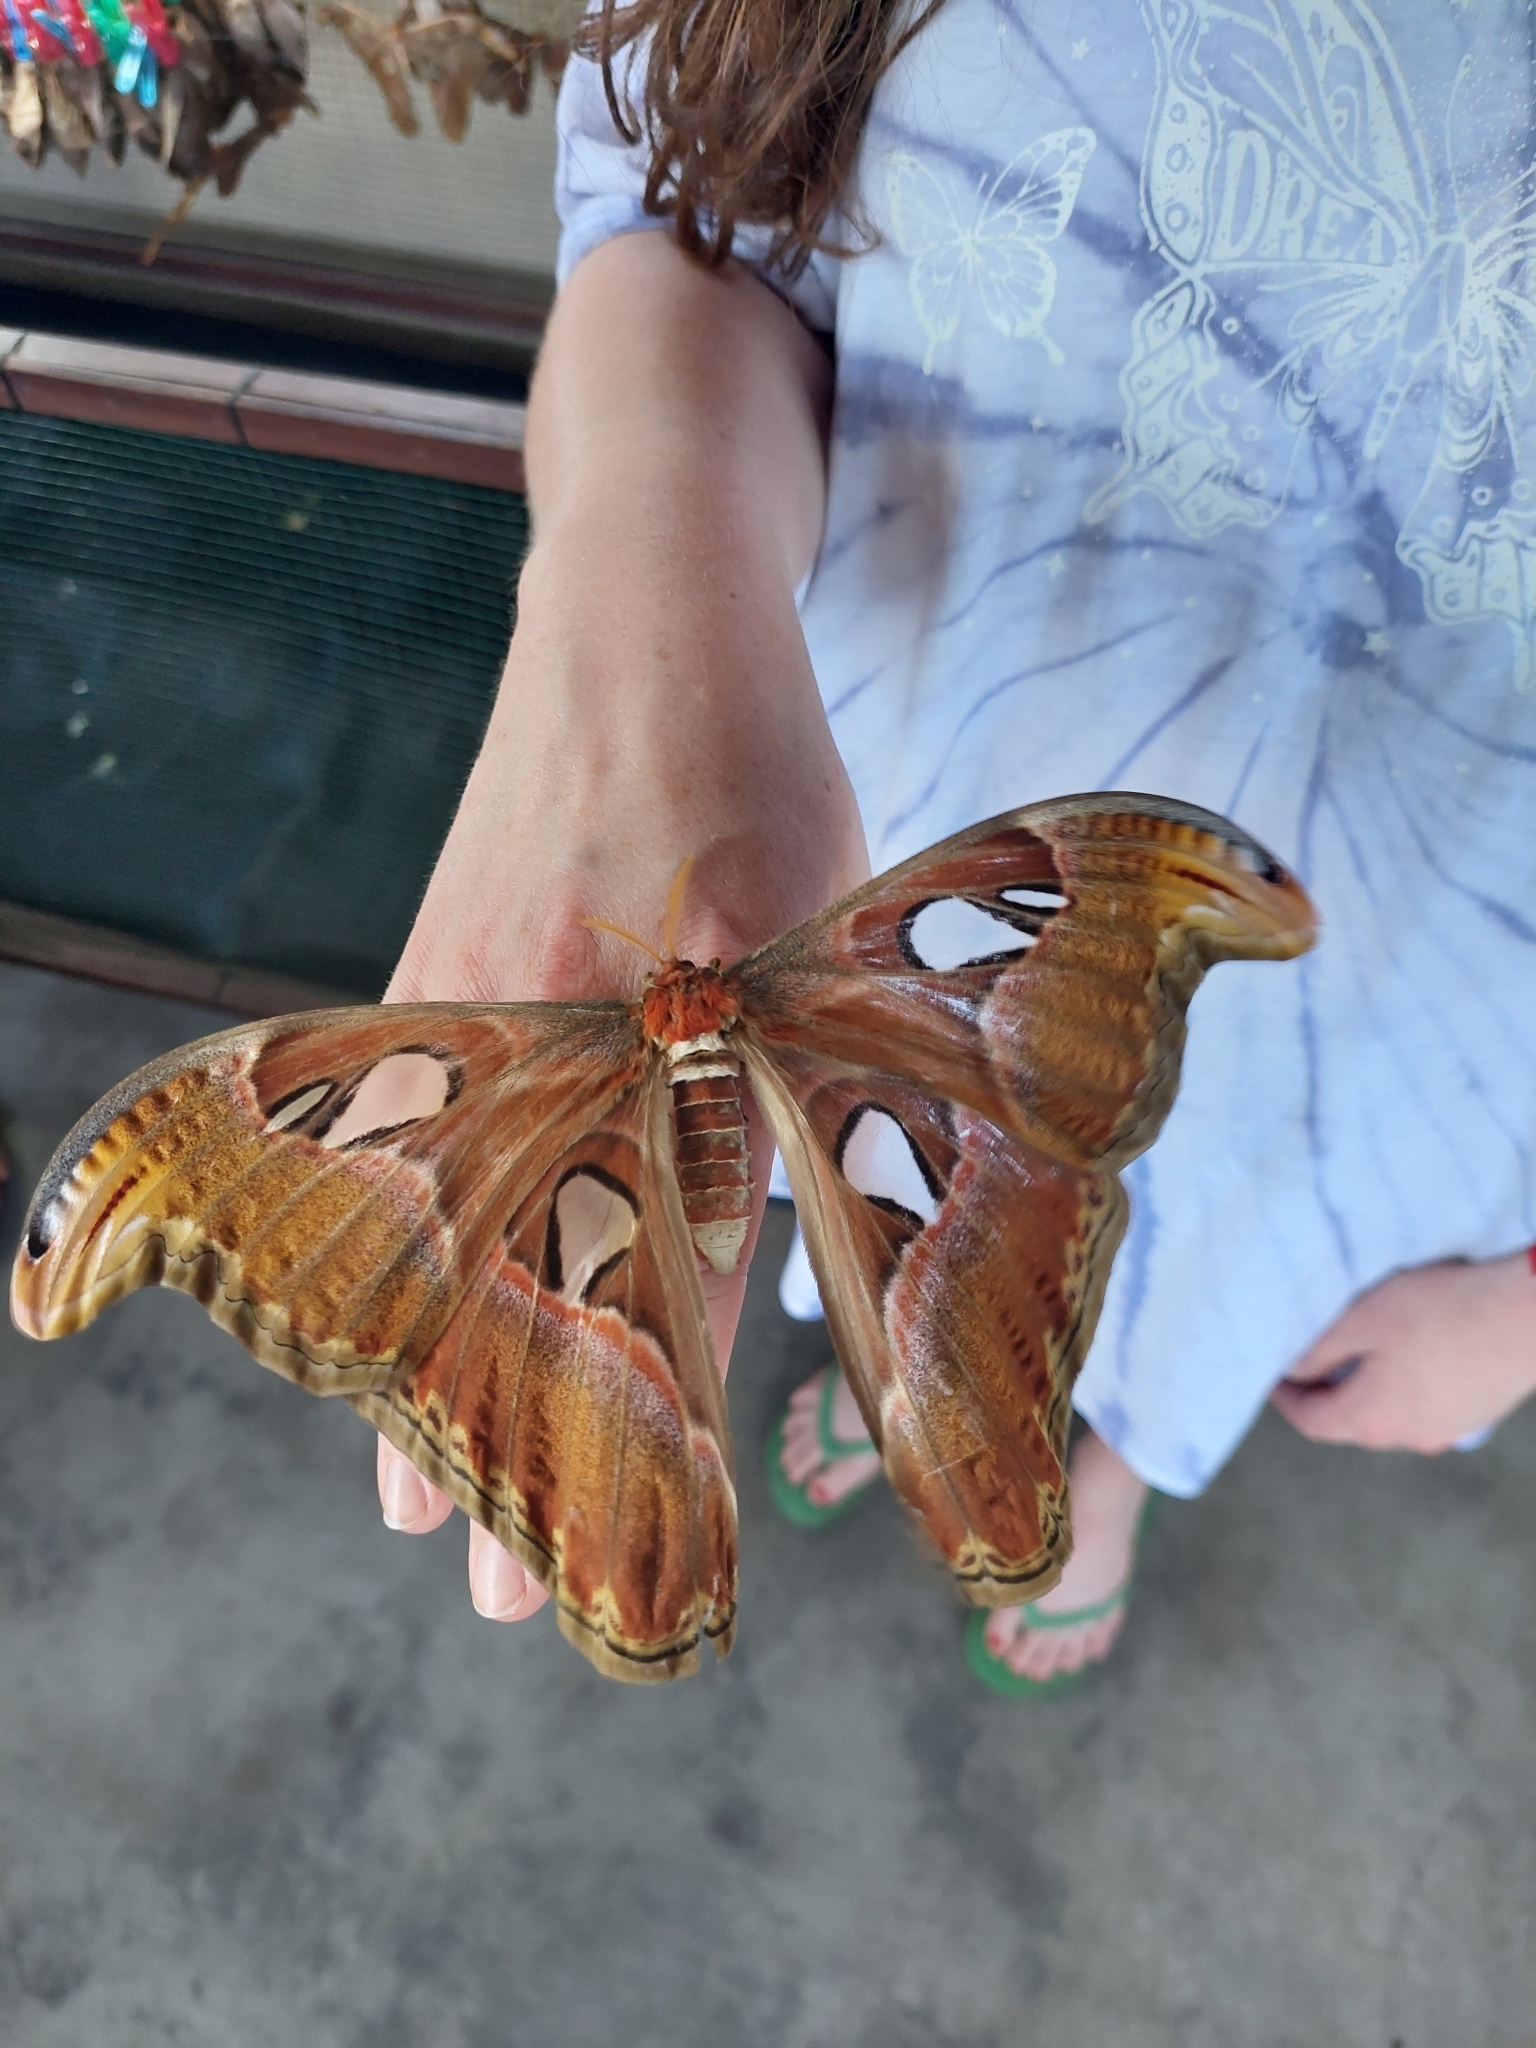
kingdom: Animalia
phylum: Arthropoda
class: Insecta
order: Lepidoptera
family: Saturniidae
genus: Attacus
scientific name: Attacus atlas
